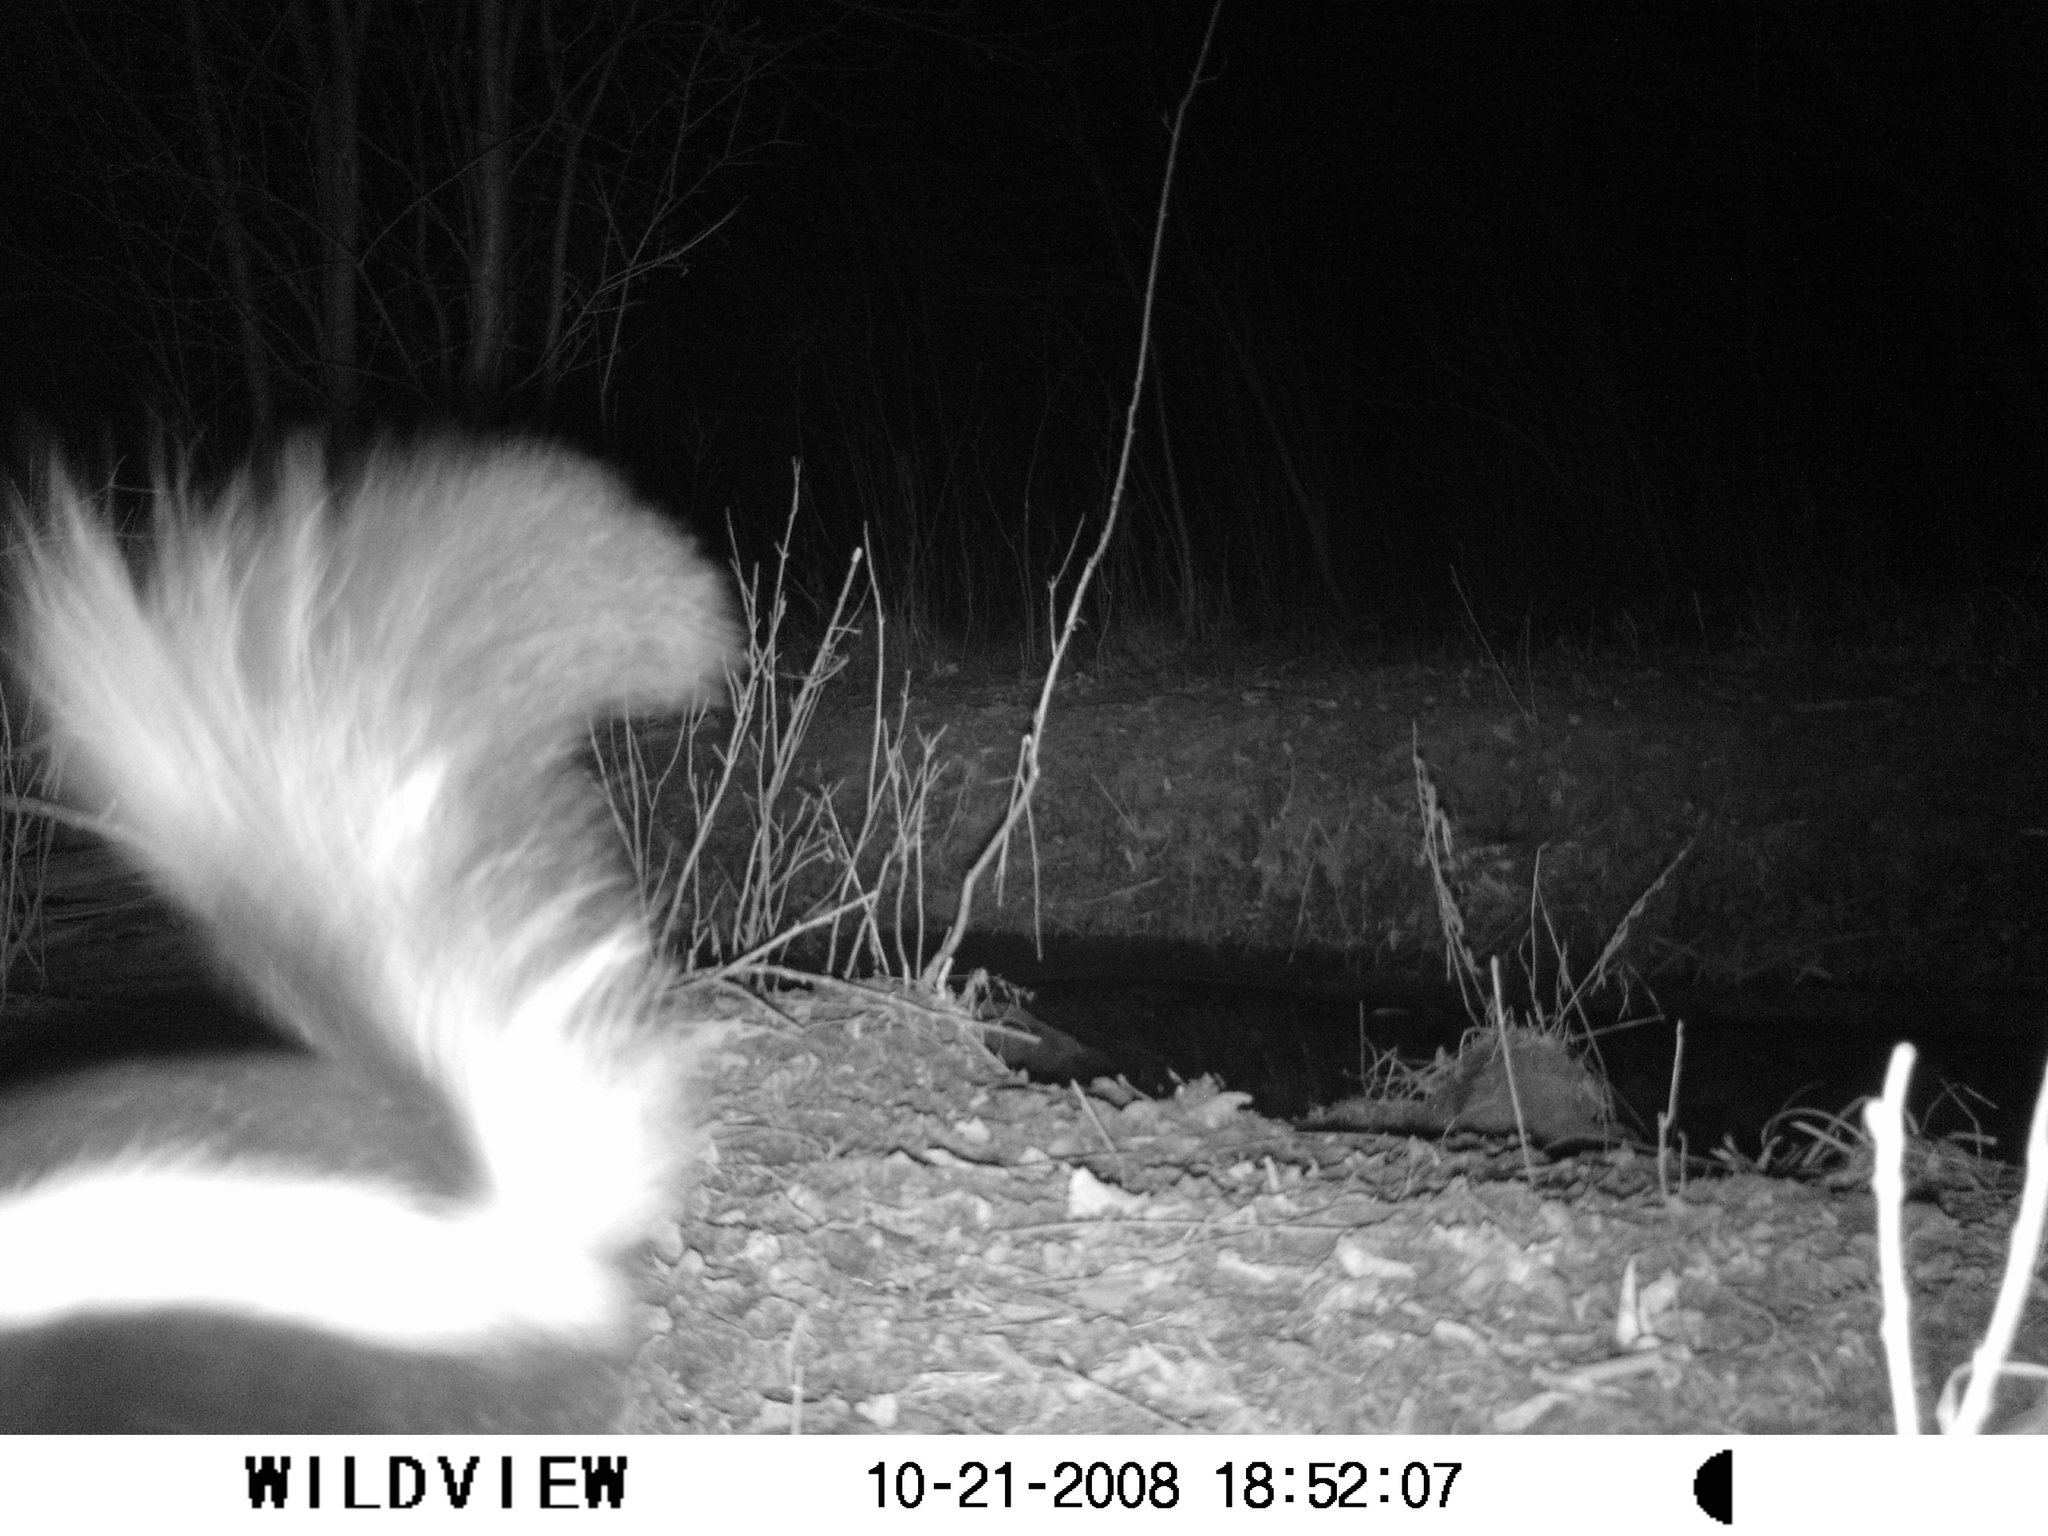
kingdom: Animalia
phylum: Chordata
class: Mammalia
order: Carnivora
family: Mephitidae
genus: Mephitis
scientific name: Mephitis mephitis
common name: Striped skunk
